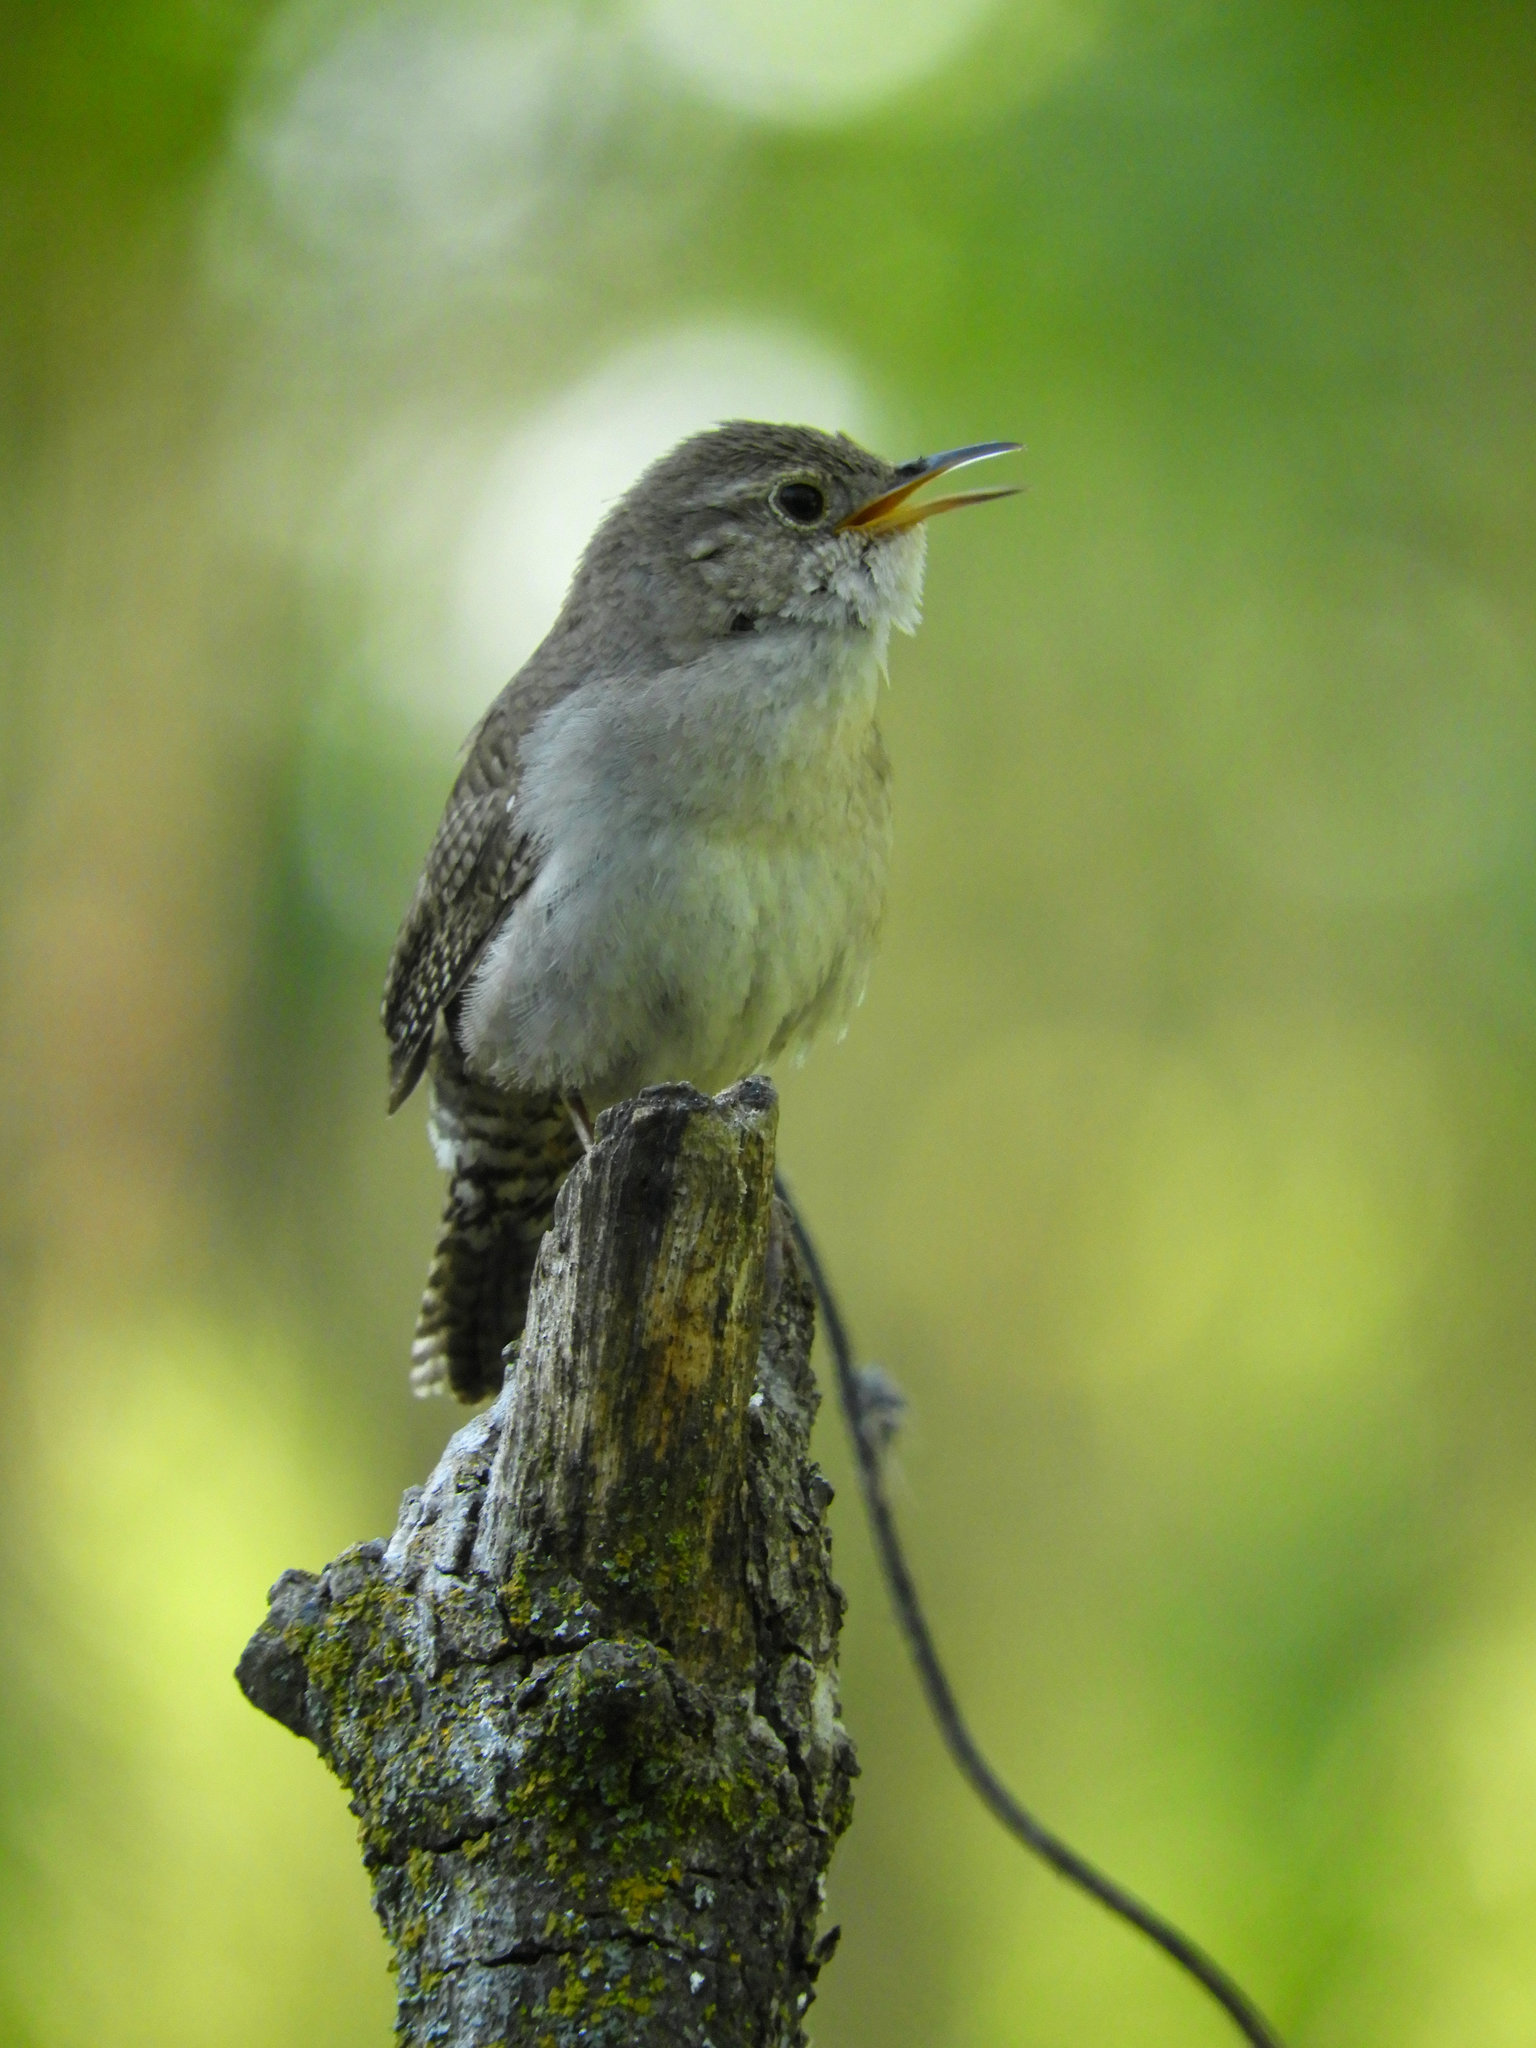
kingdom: Animalia
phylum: Chordata
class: Aves
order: Passeriformes
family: Troglodytidae
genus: Troglodytes
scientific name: Troglodytes aedon
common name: House wren
